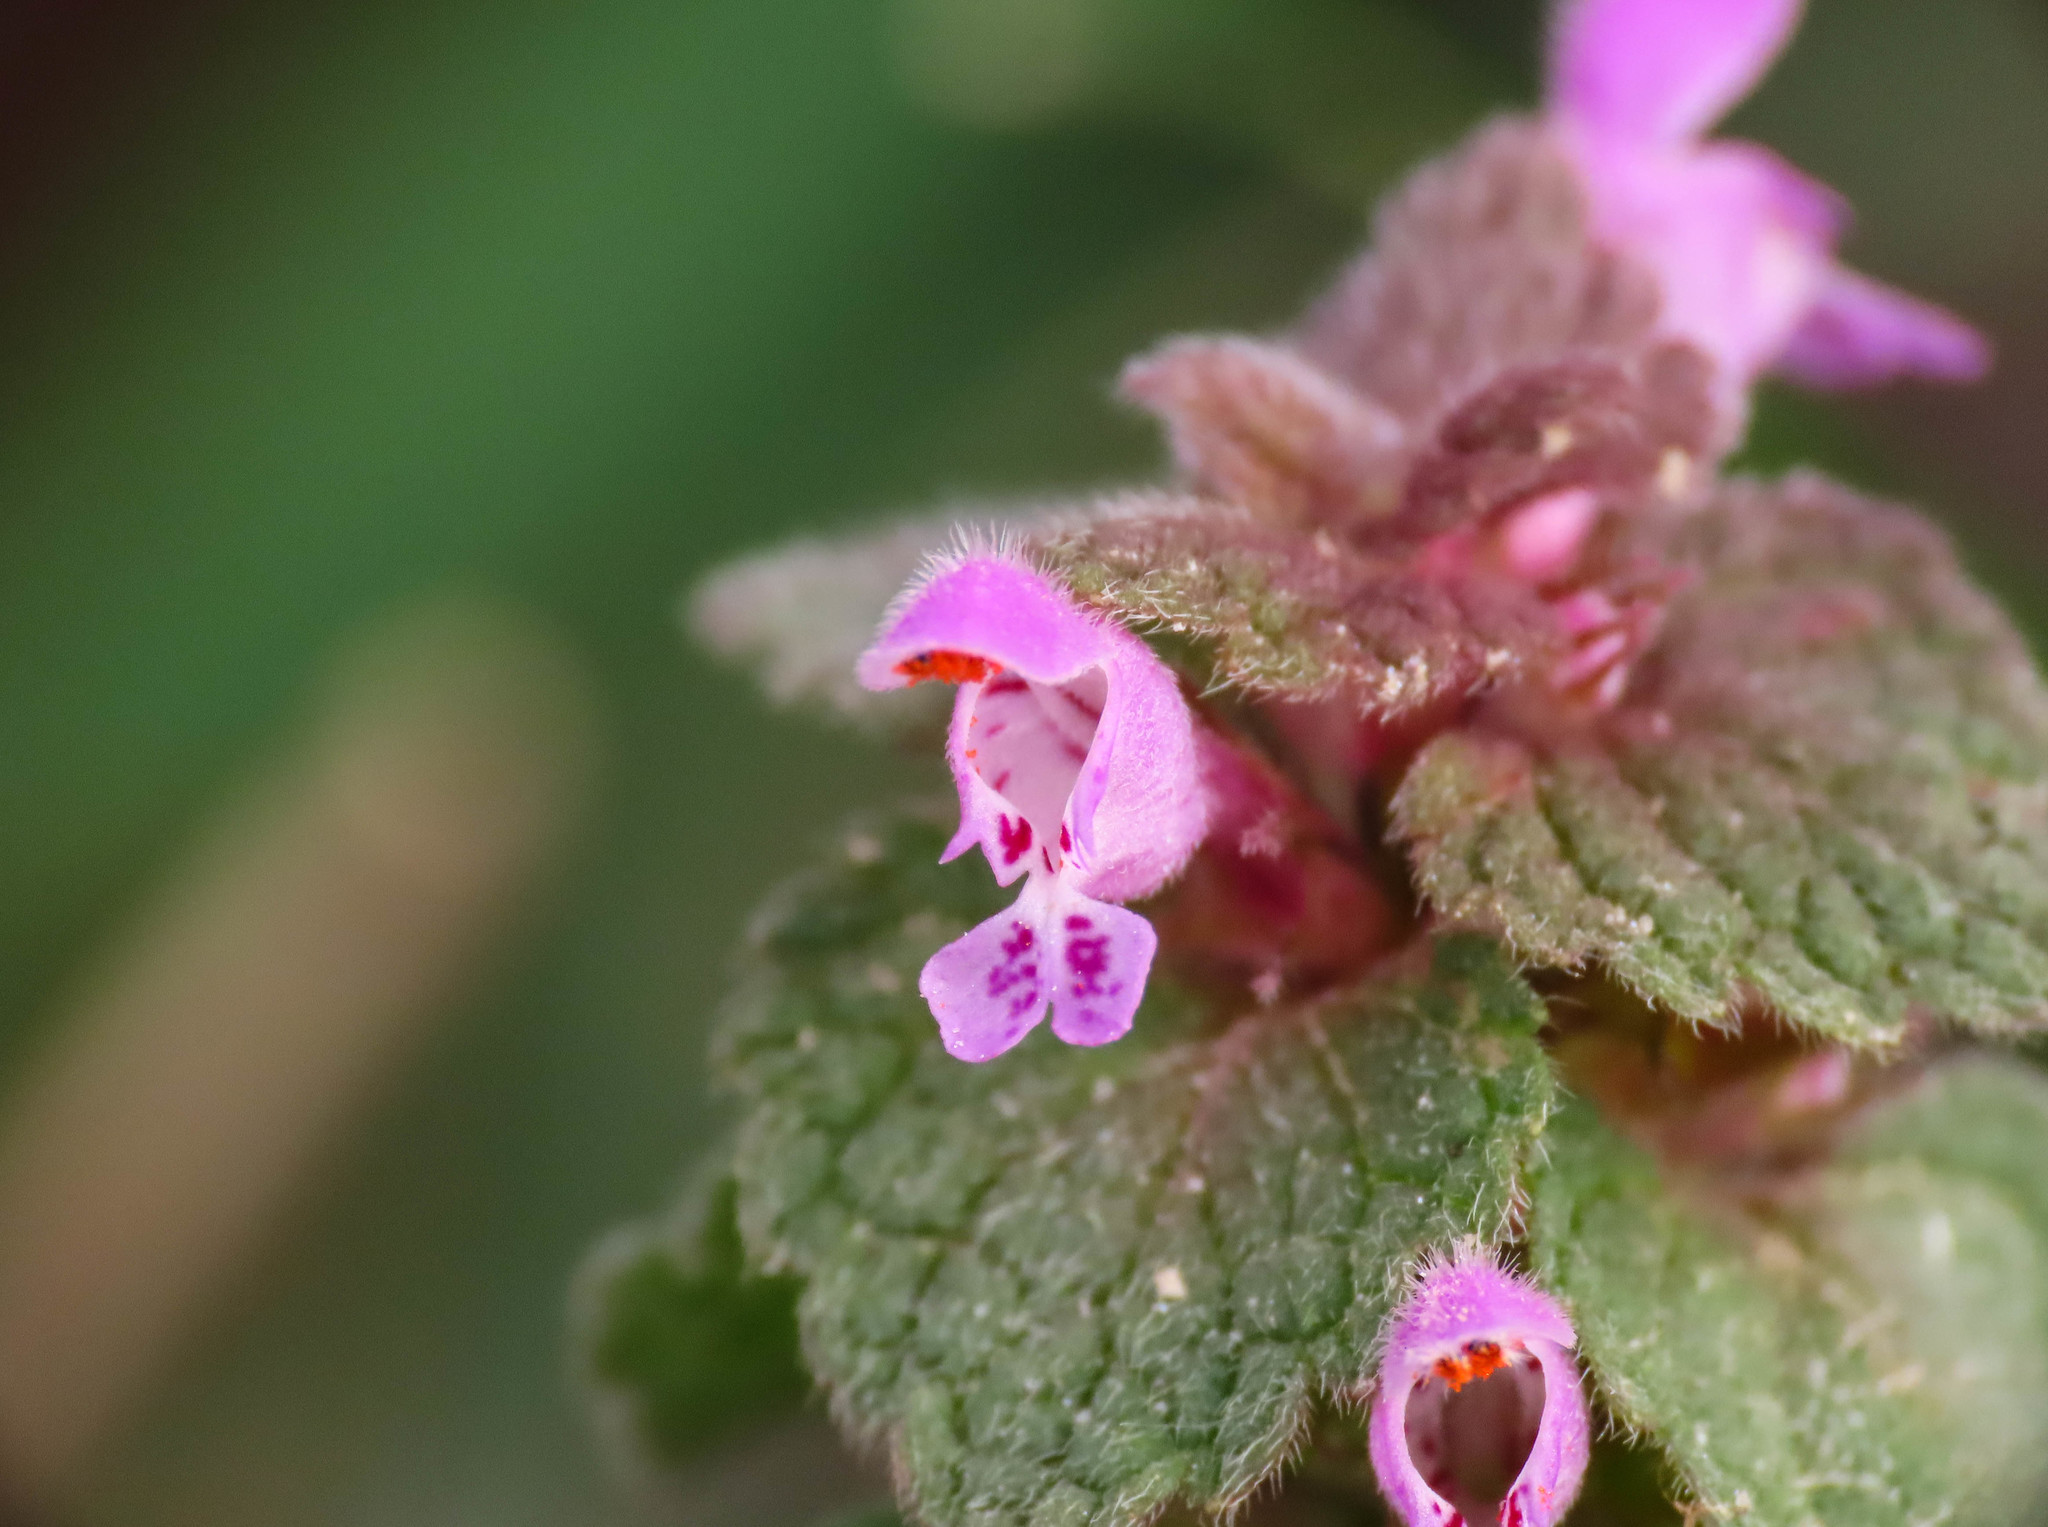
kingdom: Plantae
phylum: Tracheophyta
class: Magnoliopsida
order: Lamiales
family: Lamiaceae
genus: Lamium
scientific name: Lamium purpureum
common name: Red dead-nettle
